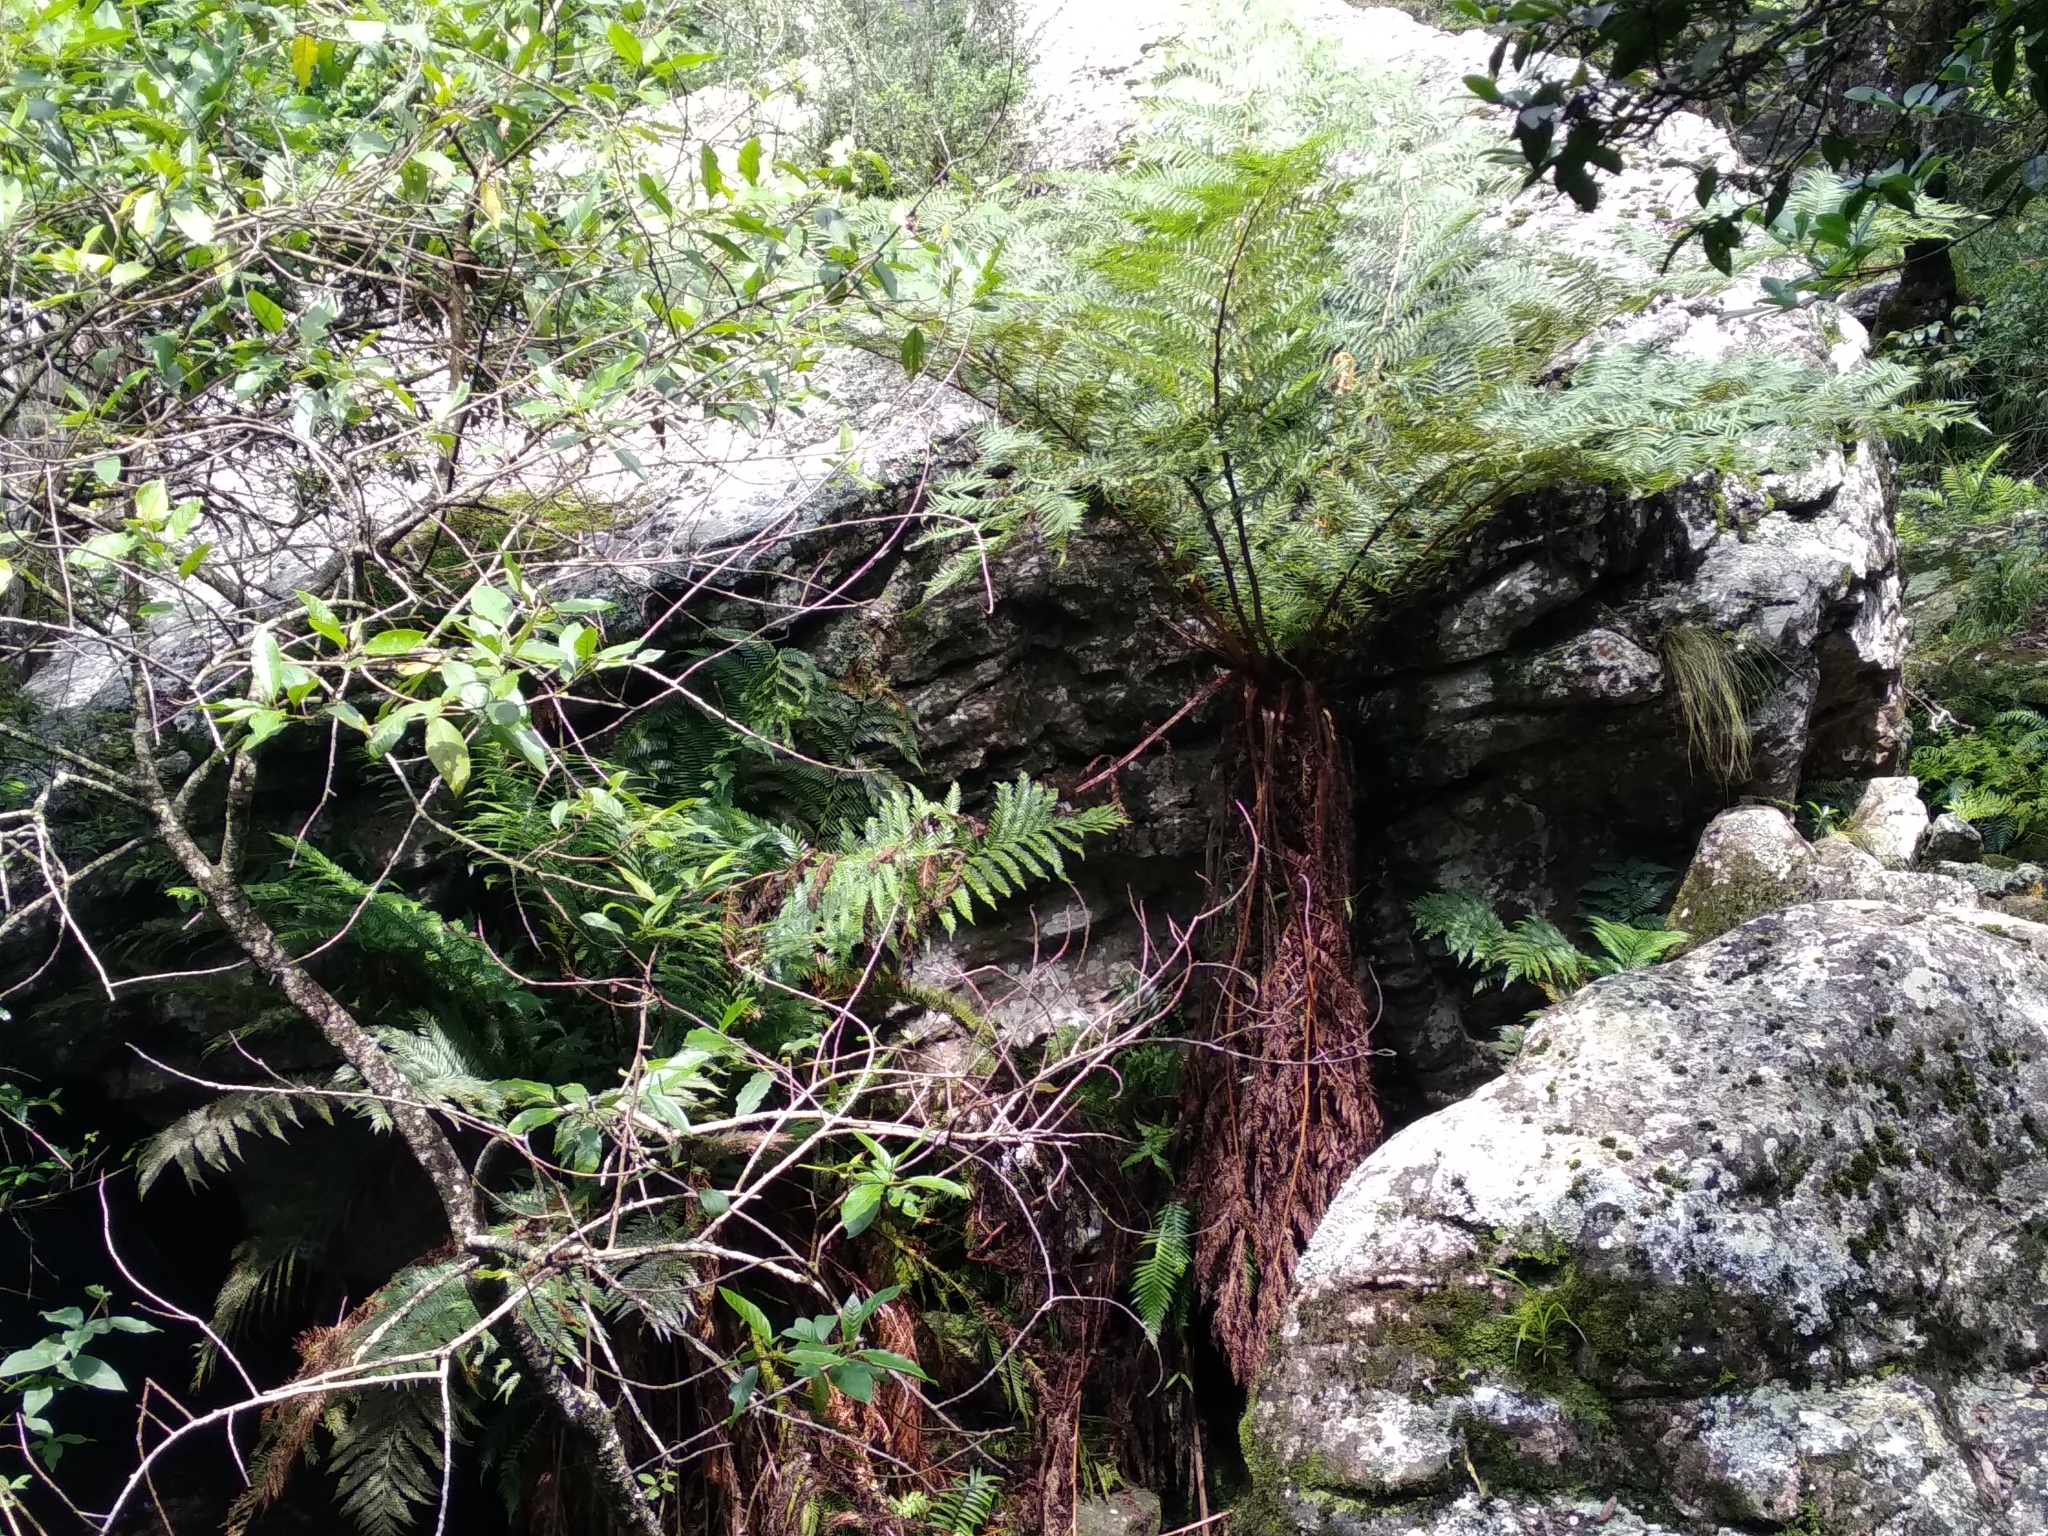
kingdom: Plantae
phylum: Tracheophyta
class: Polypodiopsida
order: Cyatheales
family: Cyatheaceae
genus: Alsophila
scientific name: Alsophila dregei
